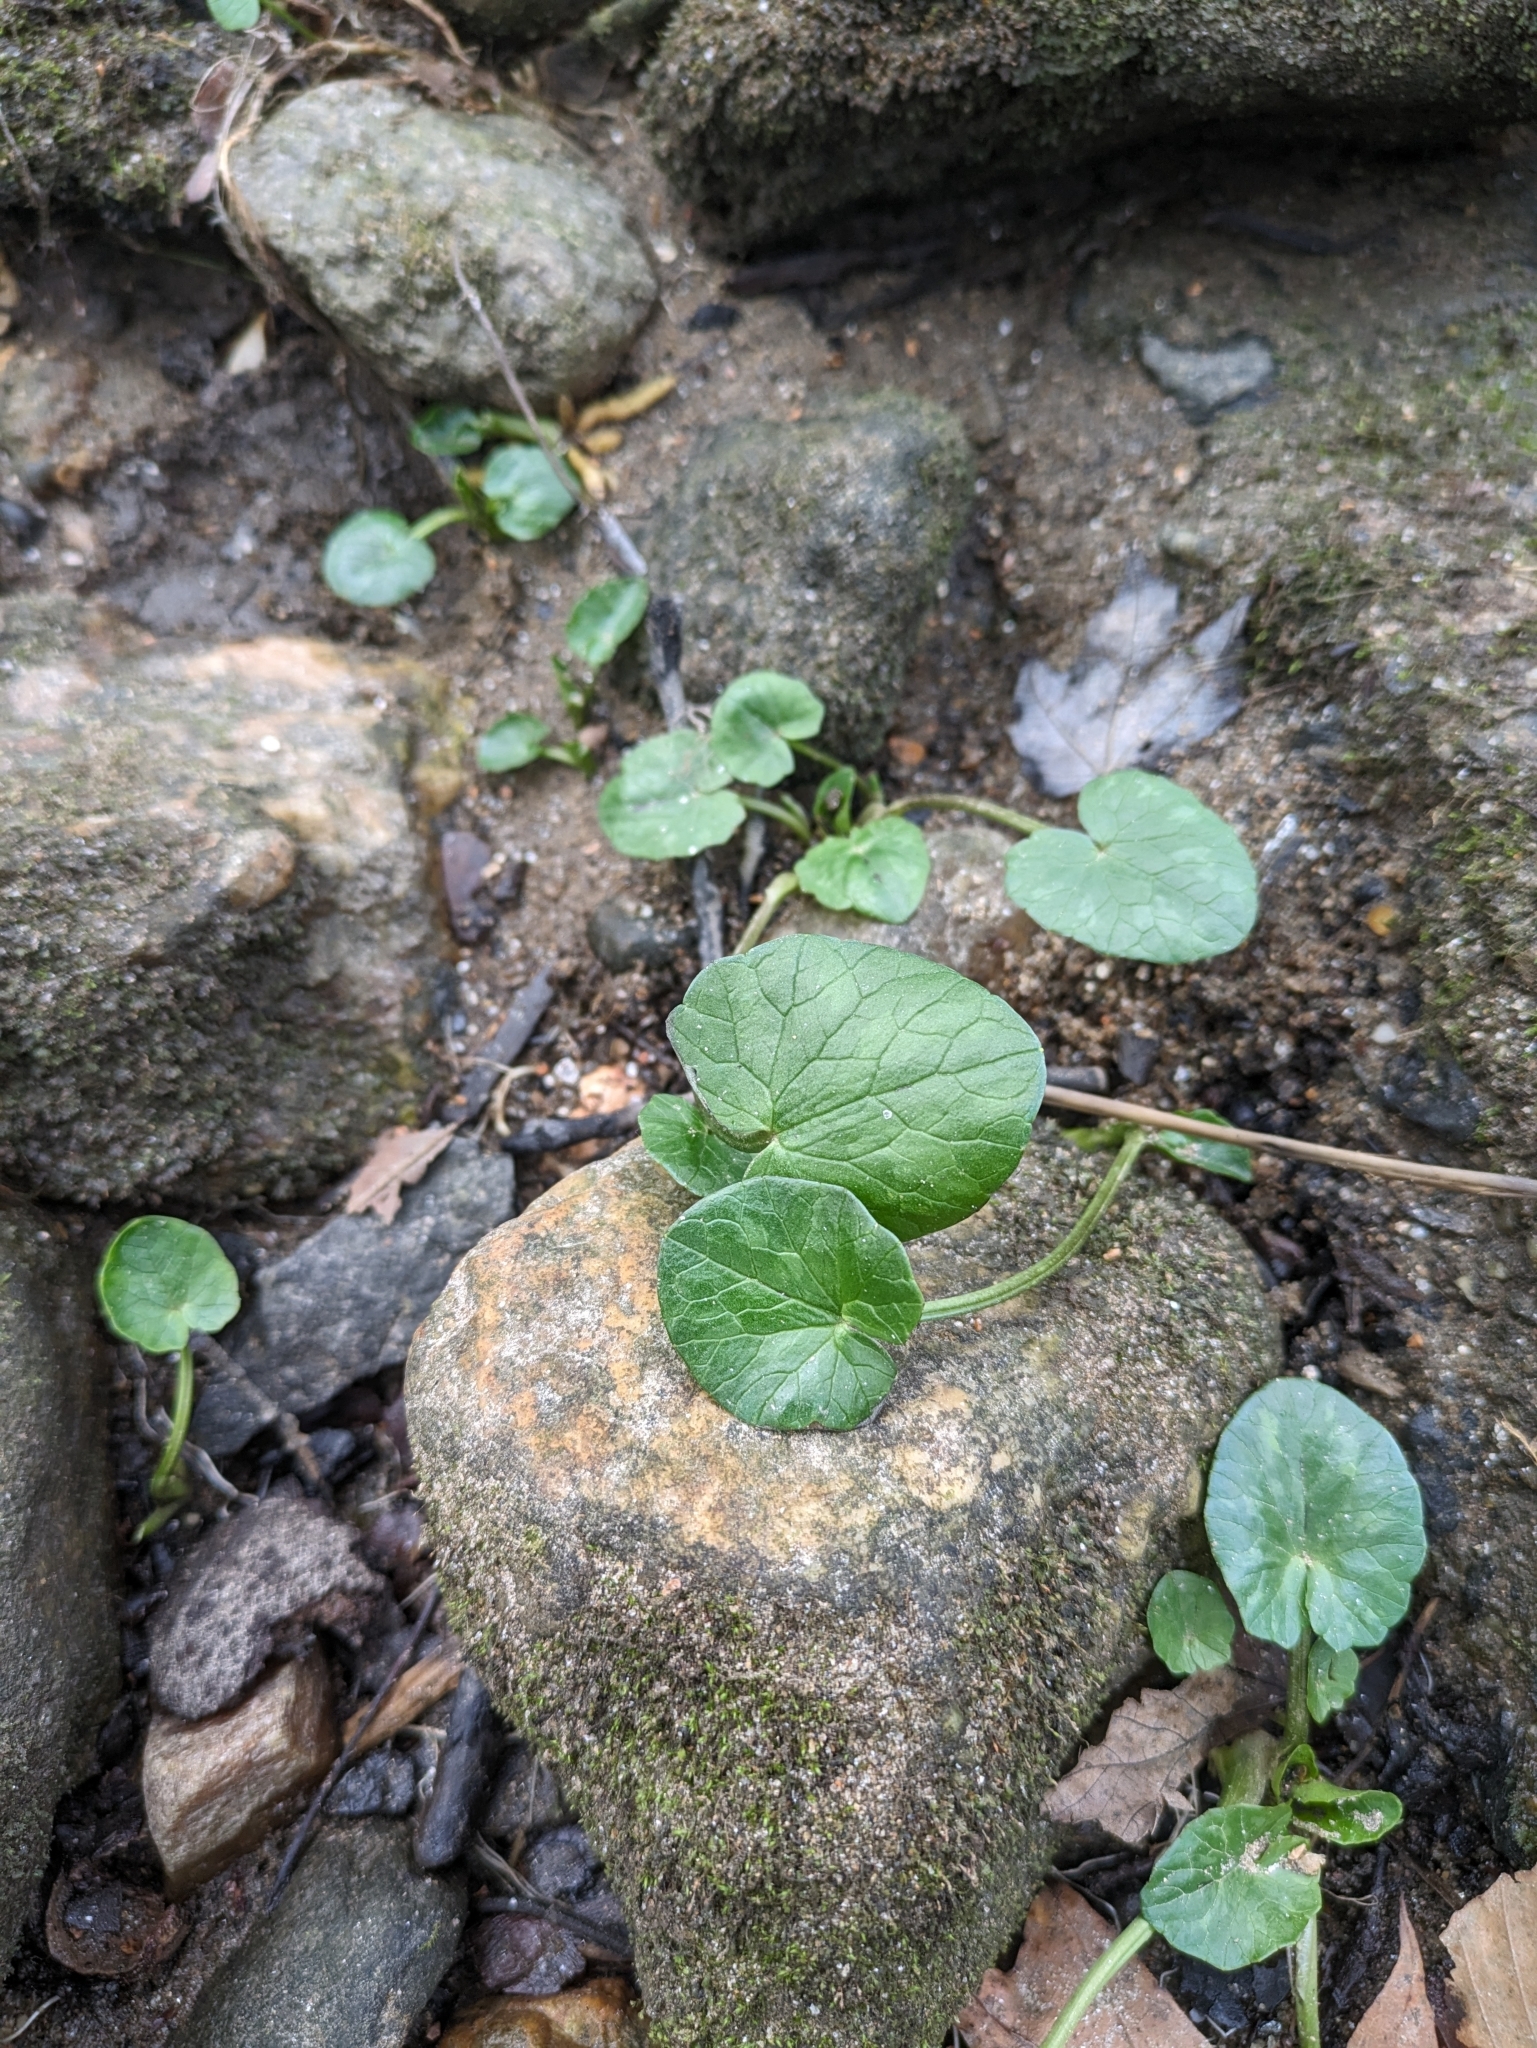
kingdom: Plantae
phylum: Tracheophyta
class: Magnoliopsida
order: Ranunculales
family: Ranunculaceae
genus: Ficaria
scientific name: Ficaria verna
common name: Lesser celandine
